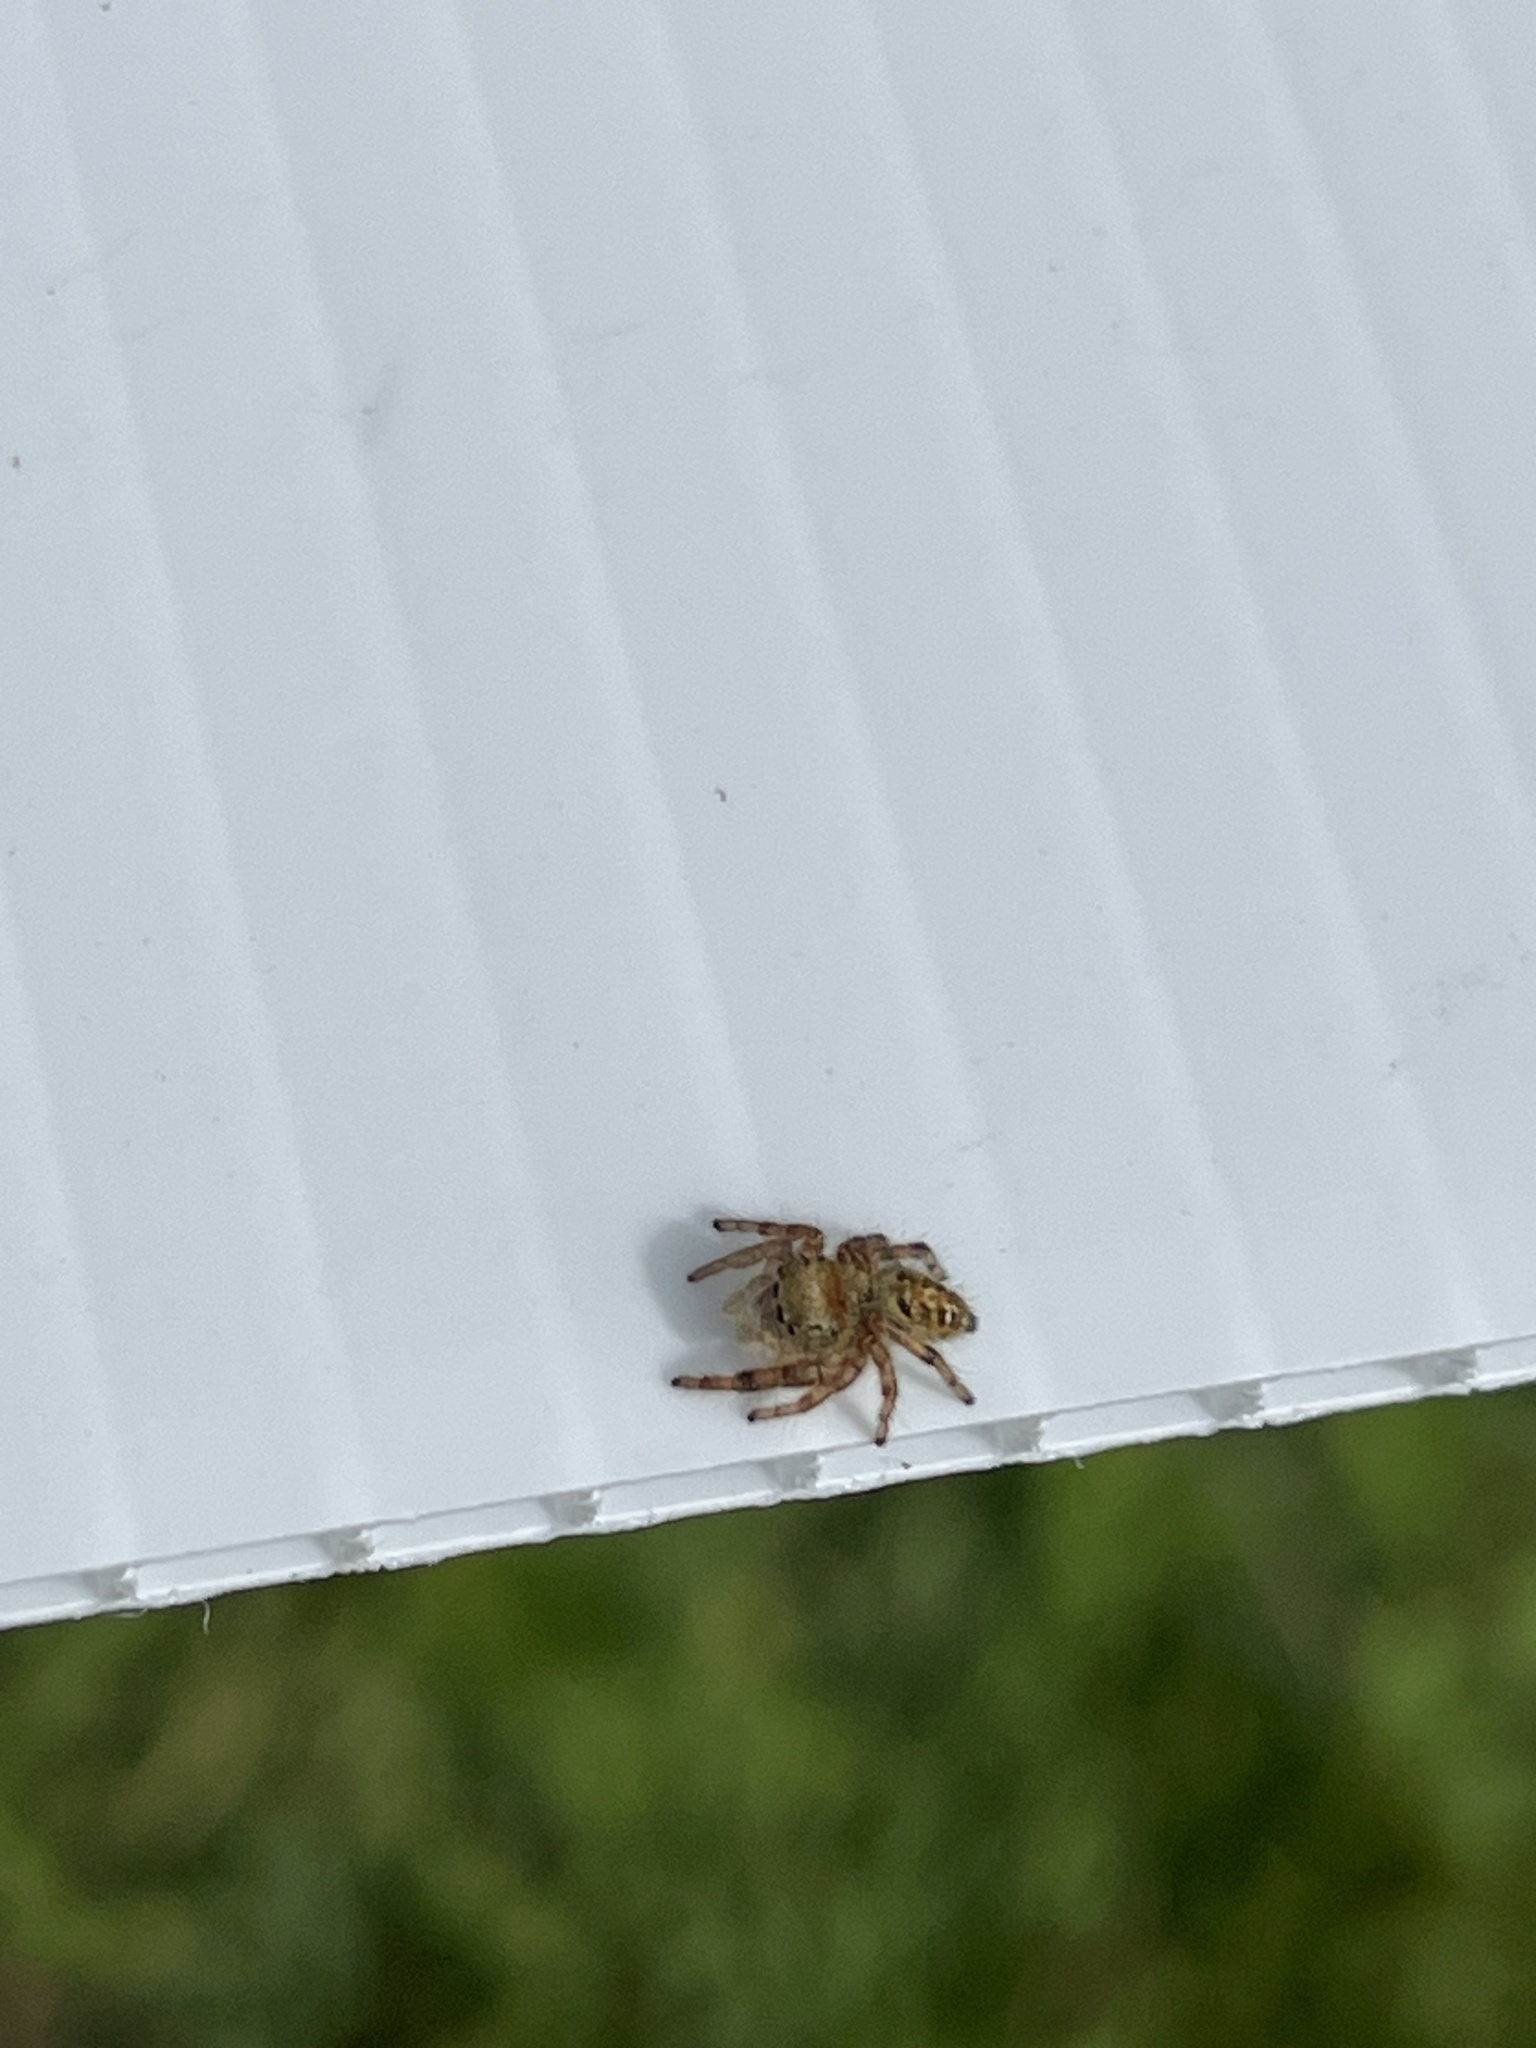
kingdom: Animalia
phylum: Arthropoda
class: Arachnida
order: Araneae
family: Salticidae
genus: Phidippus
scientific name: Phidippus princeps
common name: Grayish jumping spider
